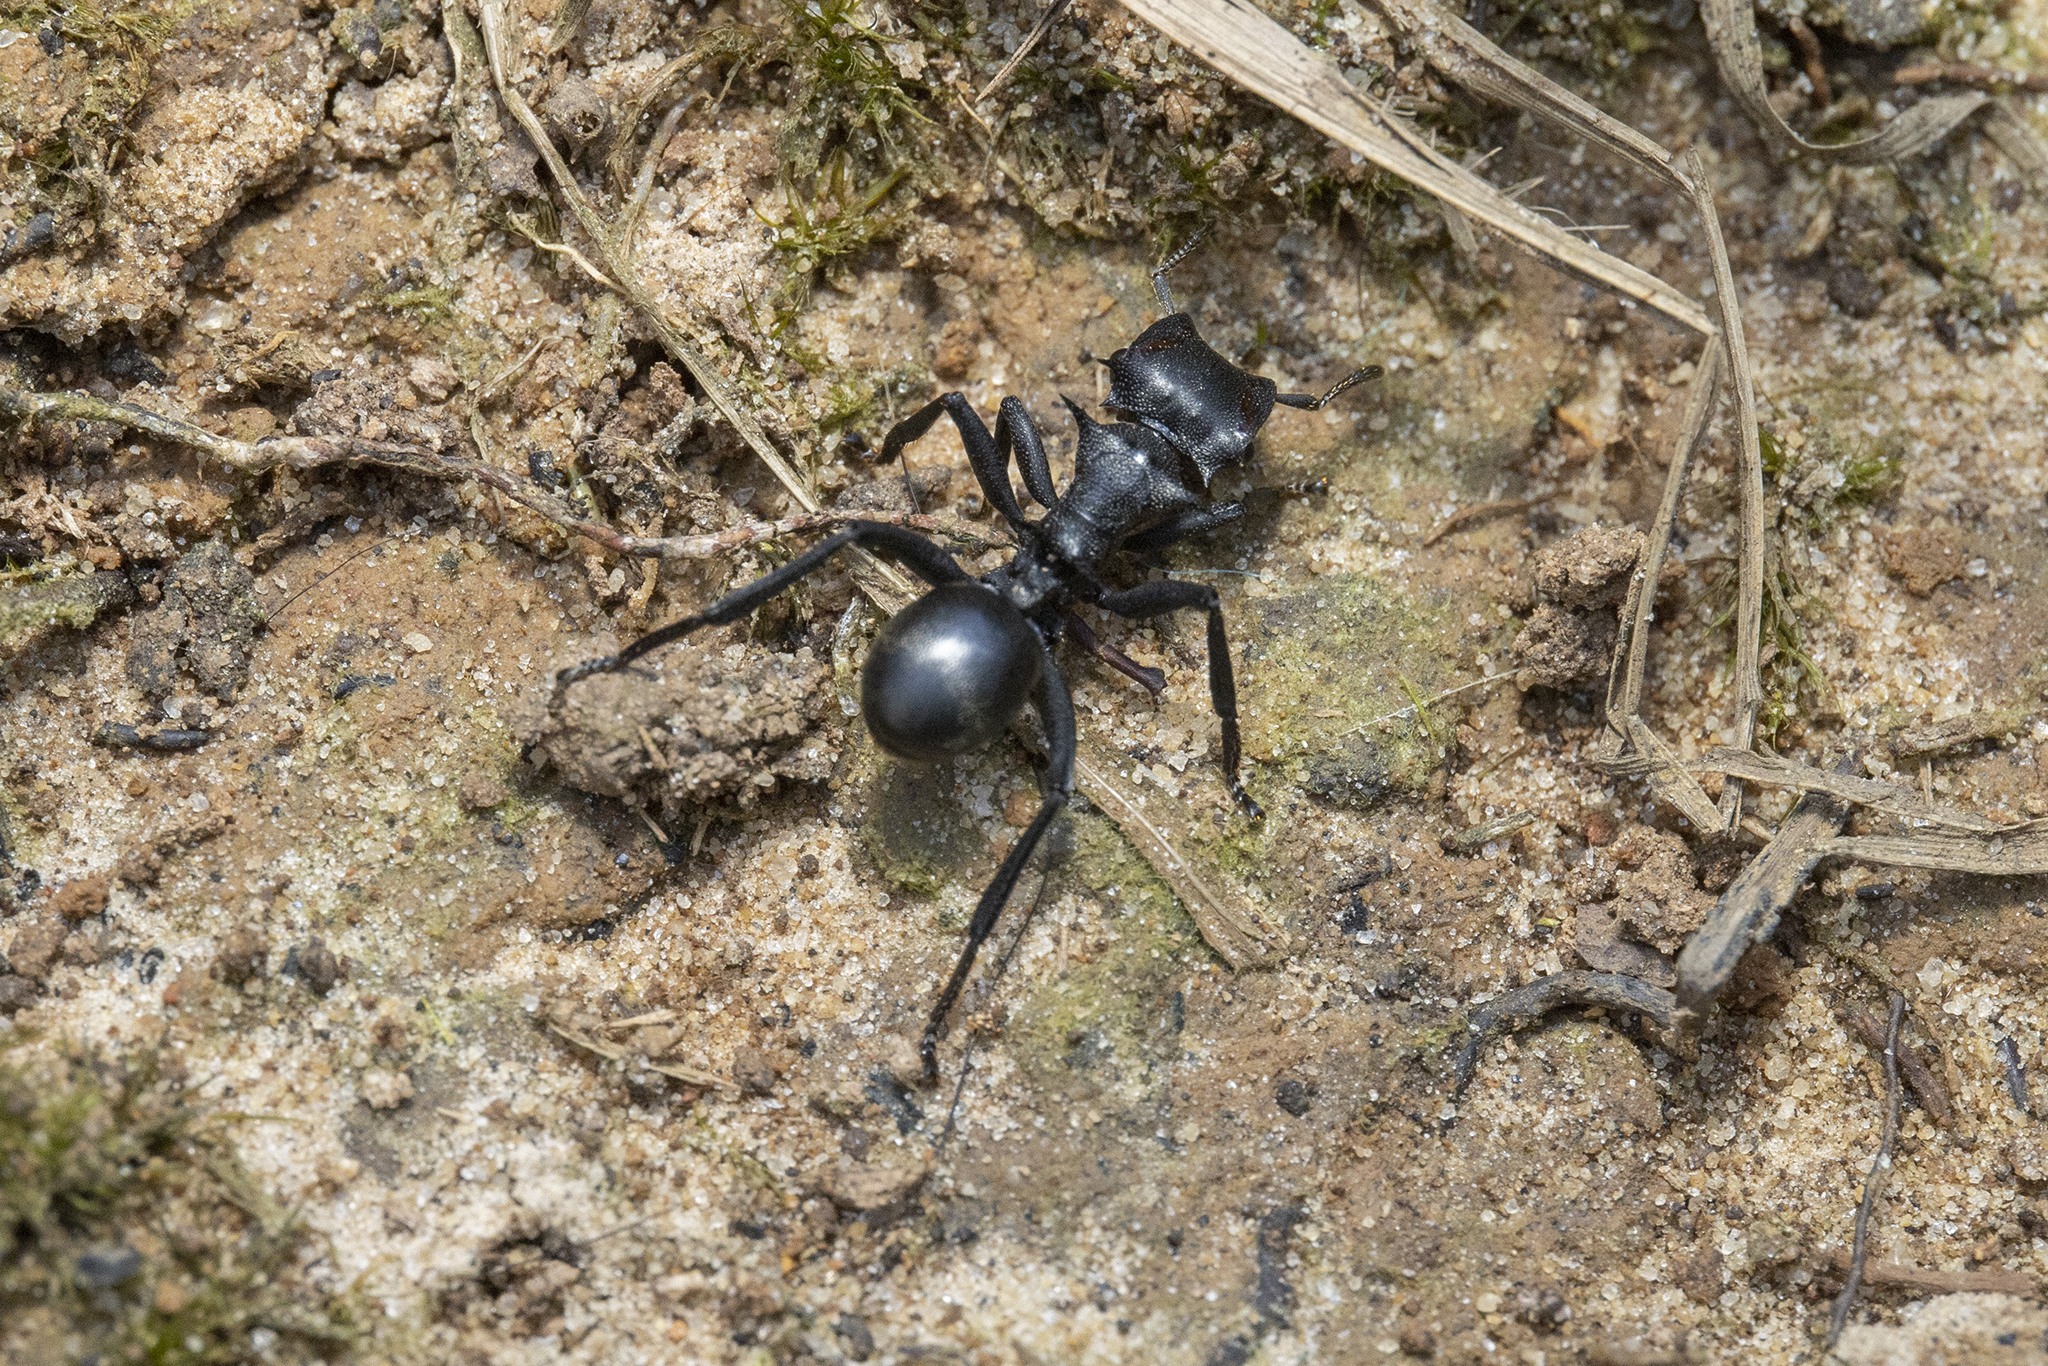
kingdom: Animalia
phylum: Arthropoda
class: Insecta
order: Hymenoptera
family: Formicidae
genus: Cephalotes
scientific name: Cephalotes atratus
